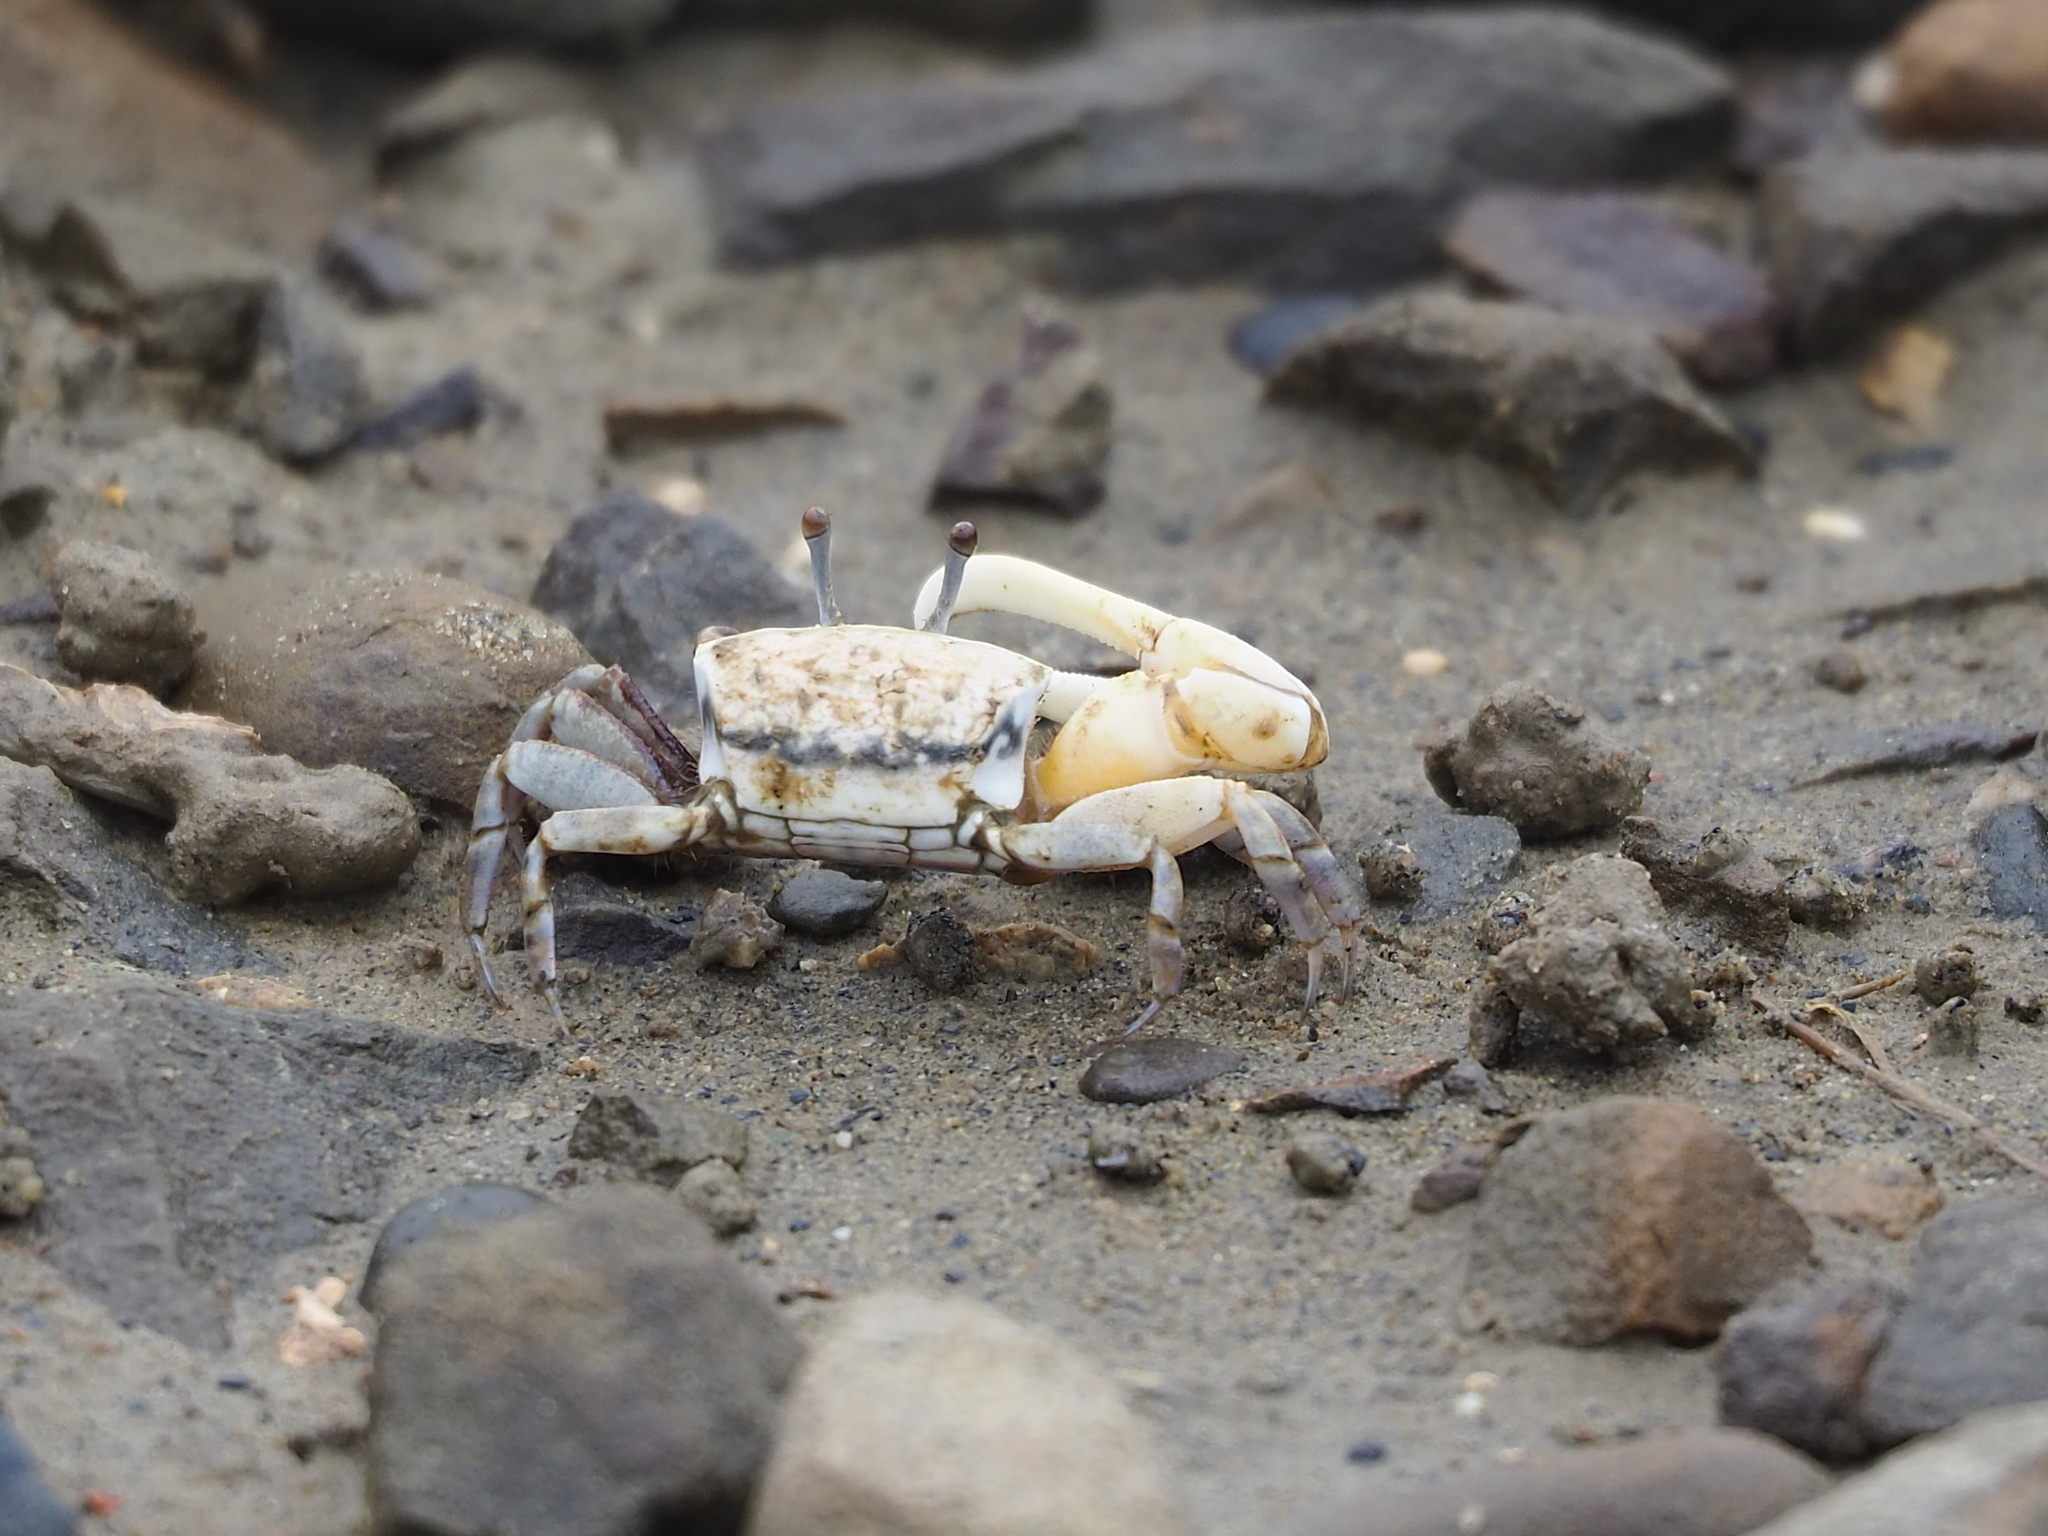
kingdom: Animalia
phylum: Arthropoda
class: Malacostraca
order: Decapoda
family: Ocypodidae
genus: Austruca
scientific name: Austruca lactea
